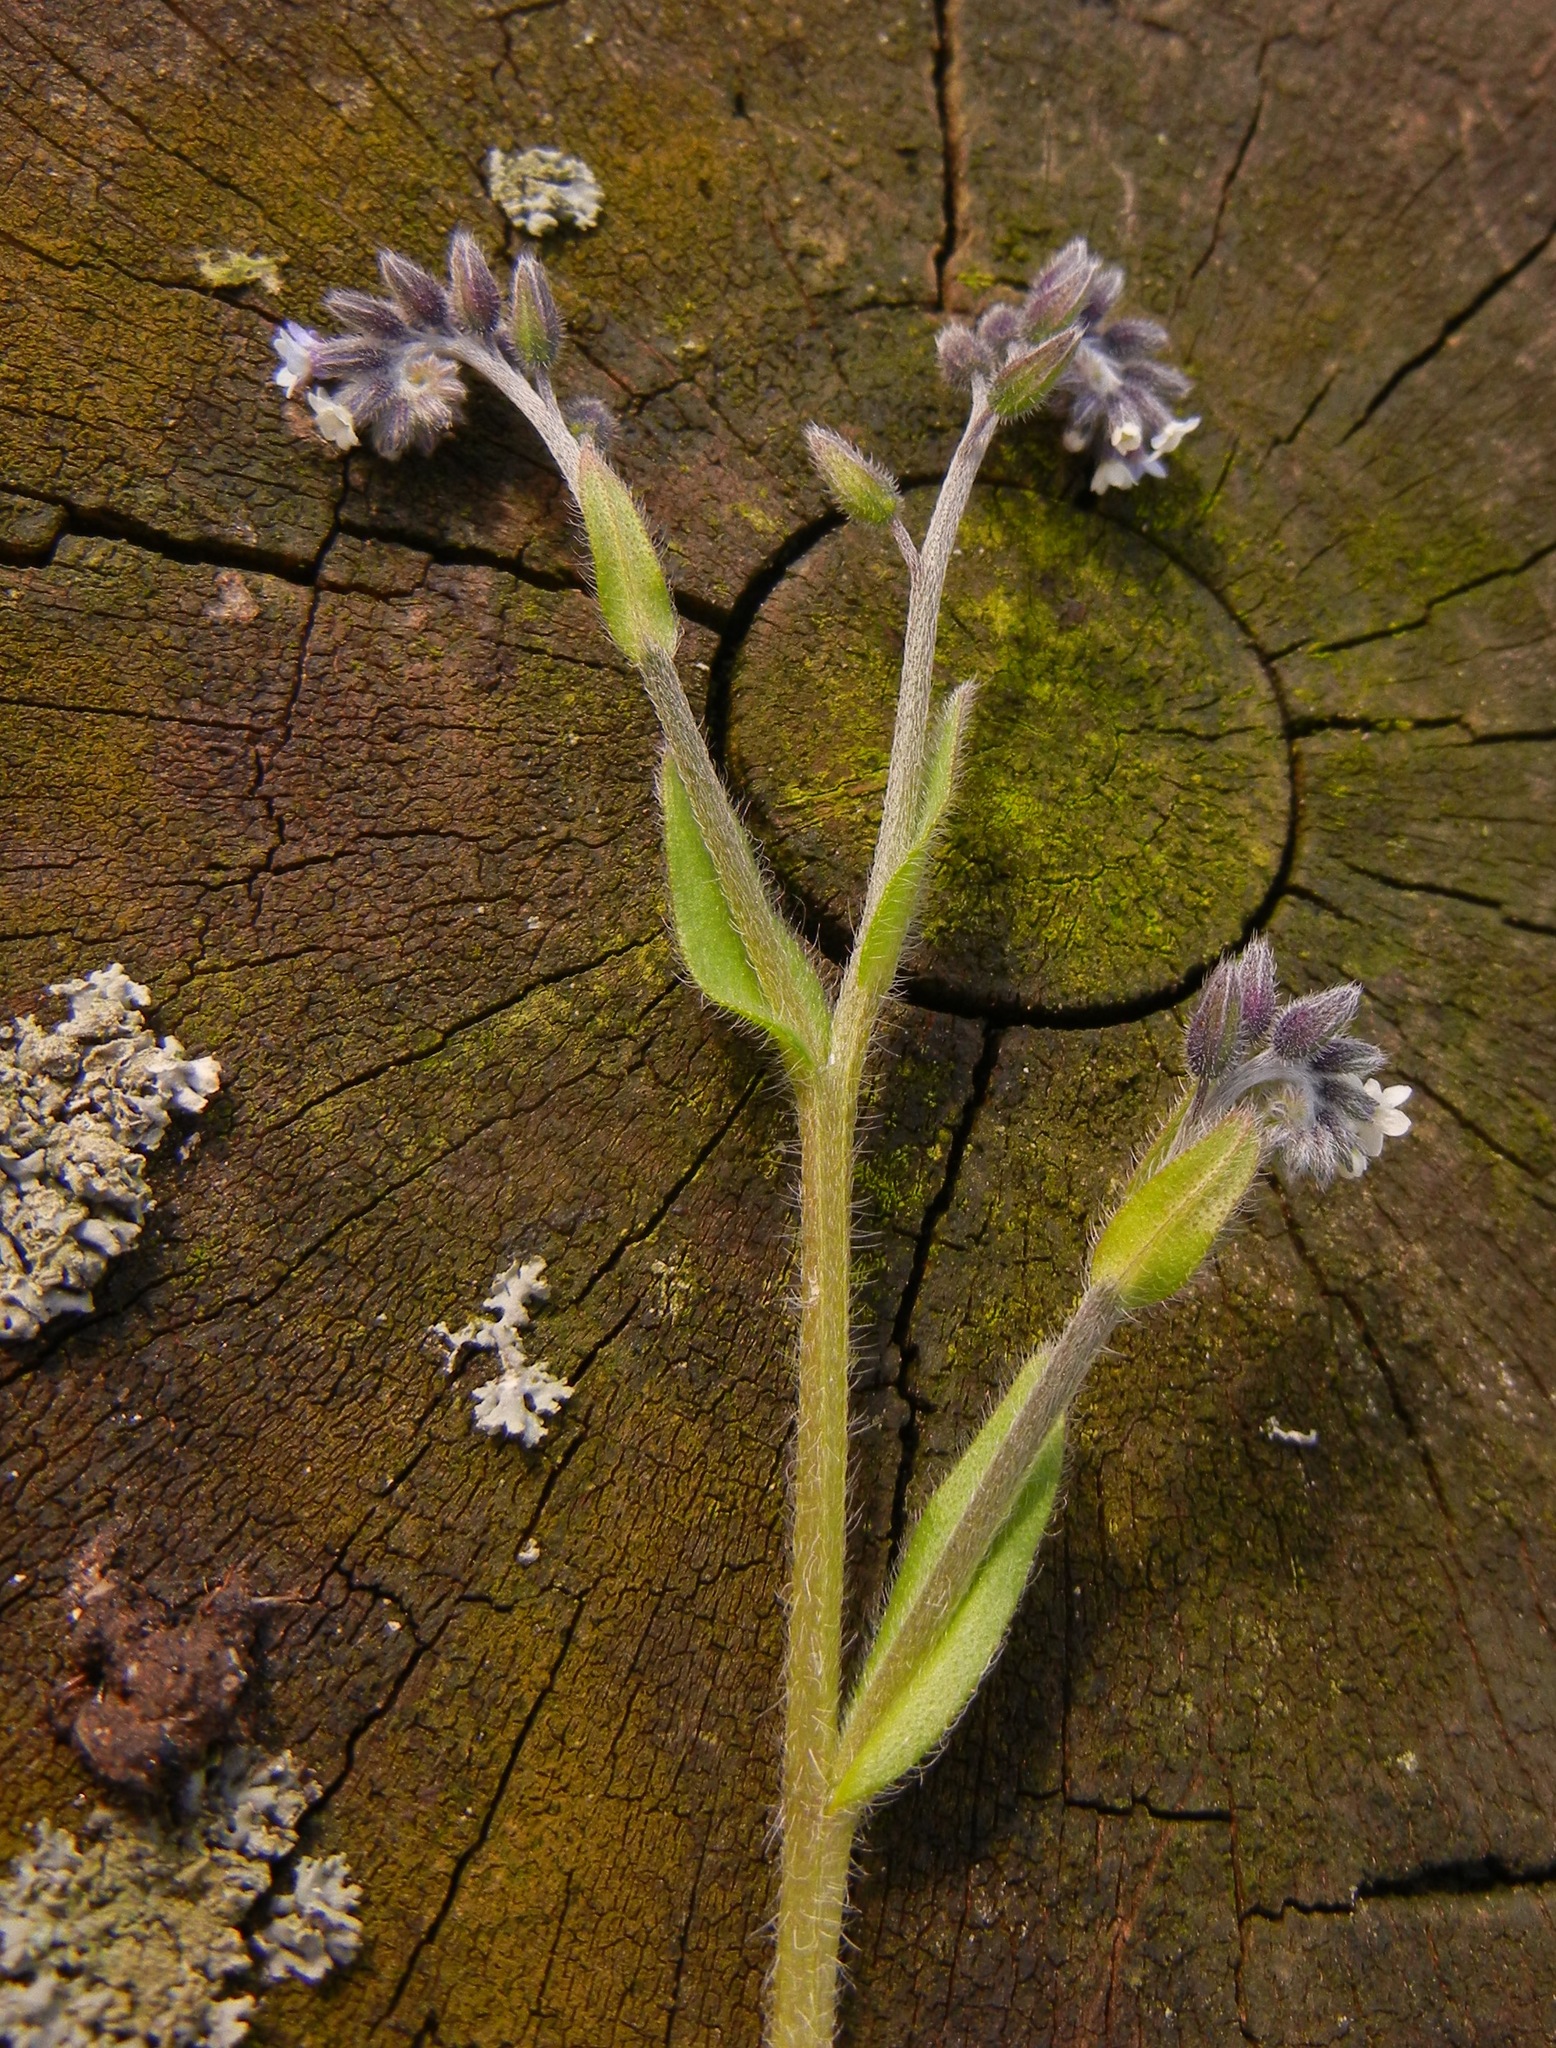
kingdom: Plantae
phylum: Tracheophyta
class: Magnoliopsida
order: Boraginales
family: Boraginaceae
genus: Myosotis
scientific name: Myosotis discolor
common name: Changing forget-me-not
